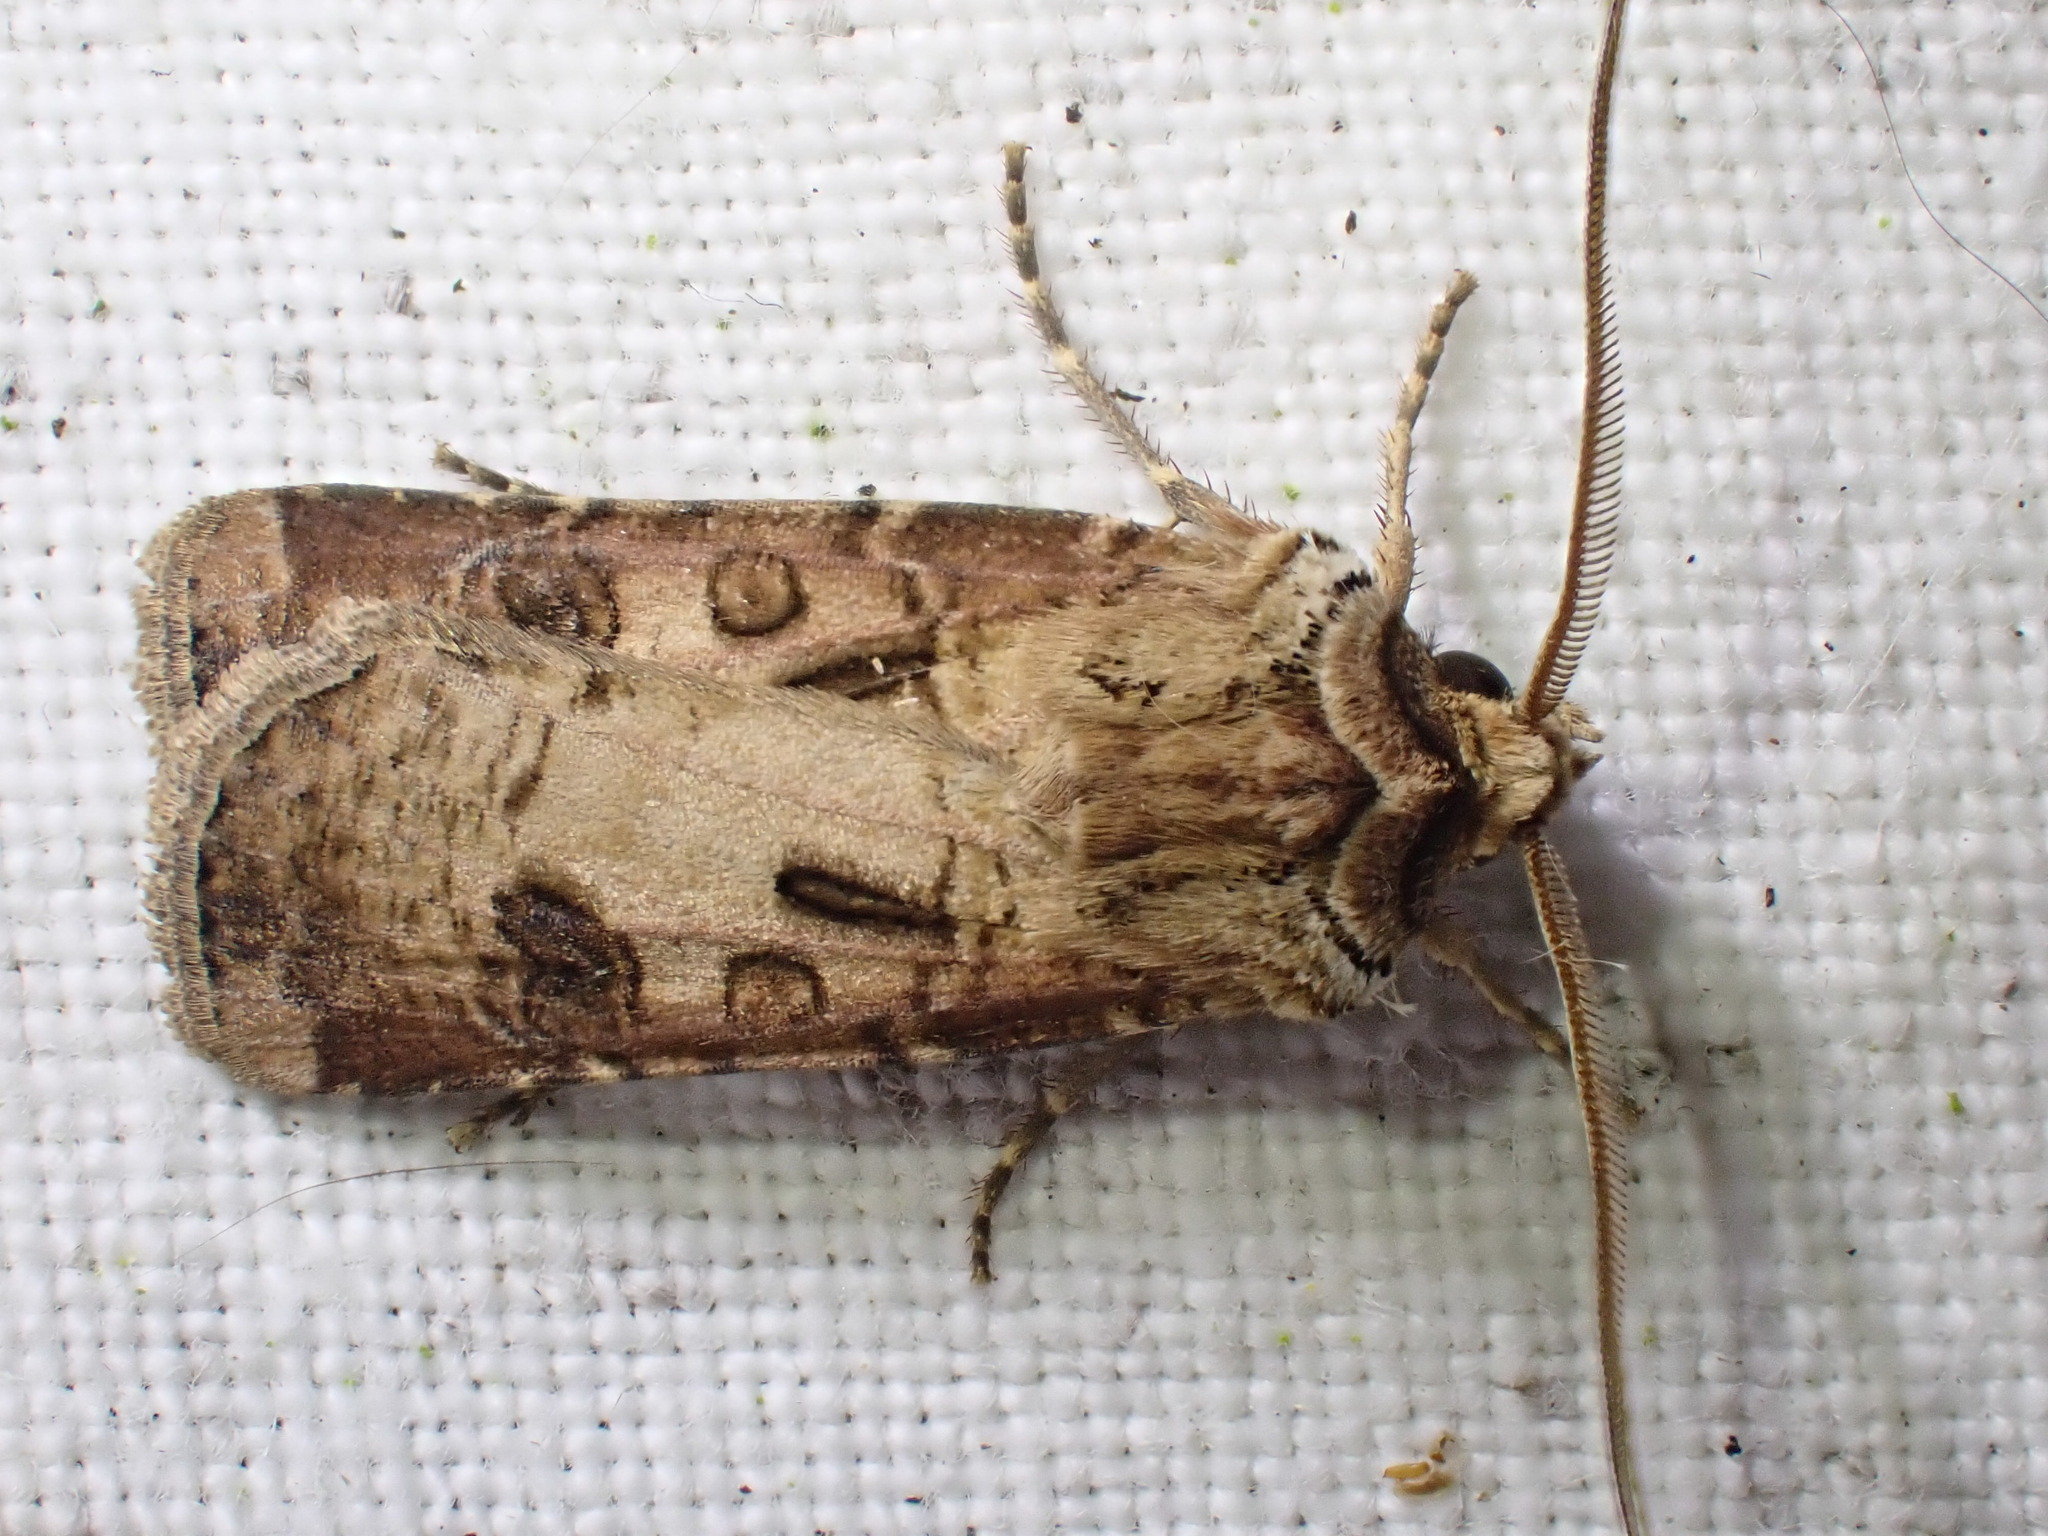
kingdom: Animalia
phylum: Arthropoda
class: Insecta
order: Lepidoptera
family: Noctuidae
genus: Agrotis
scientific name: Agrotis clavis
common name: Heart and club
